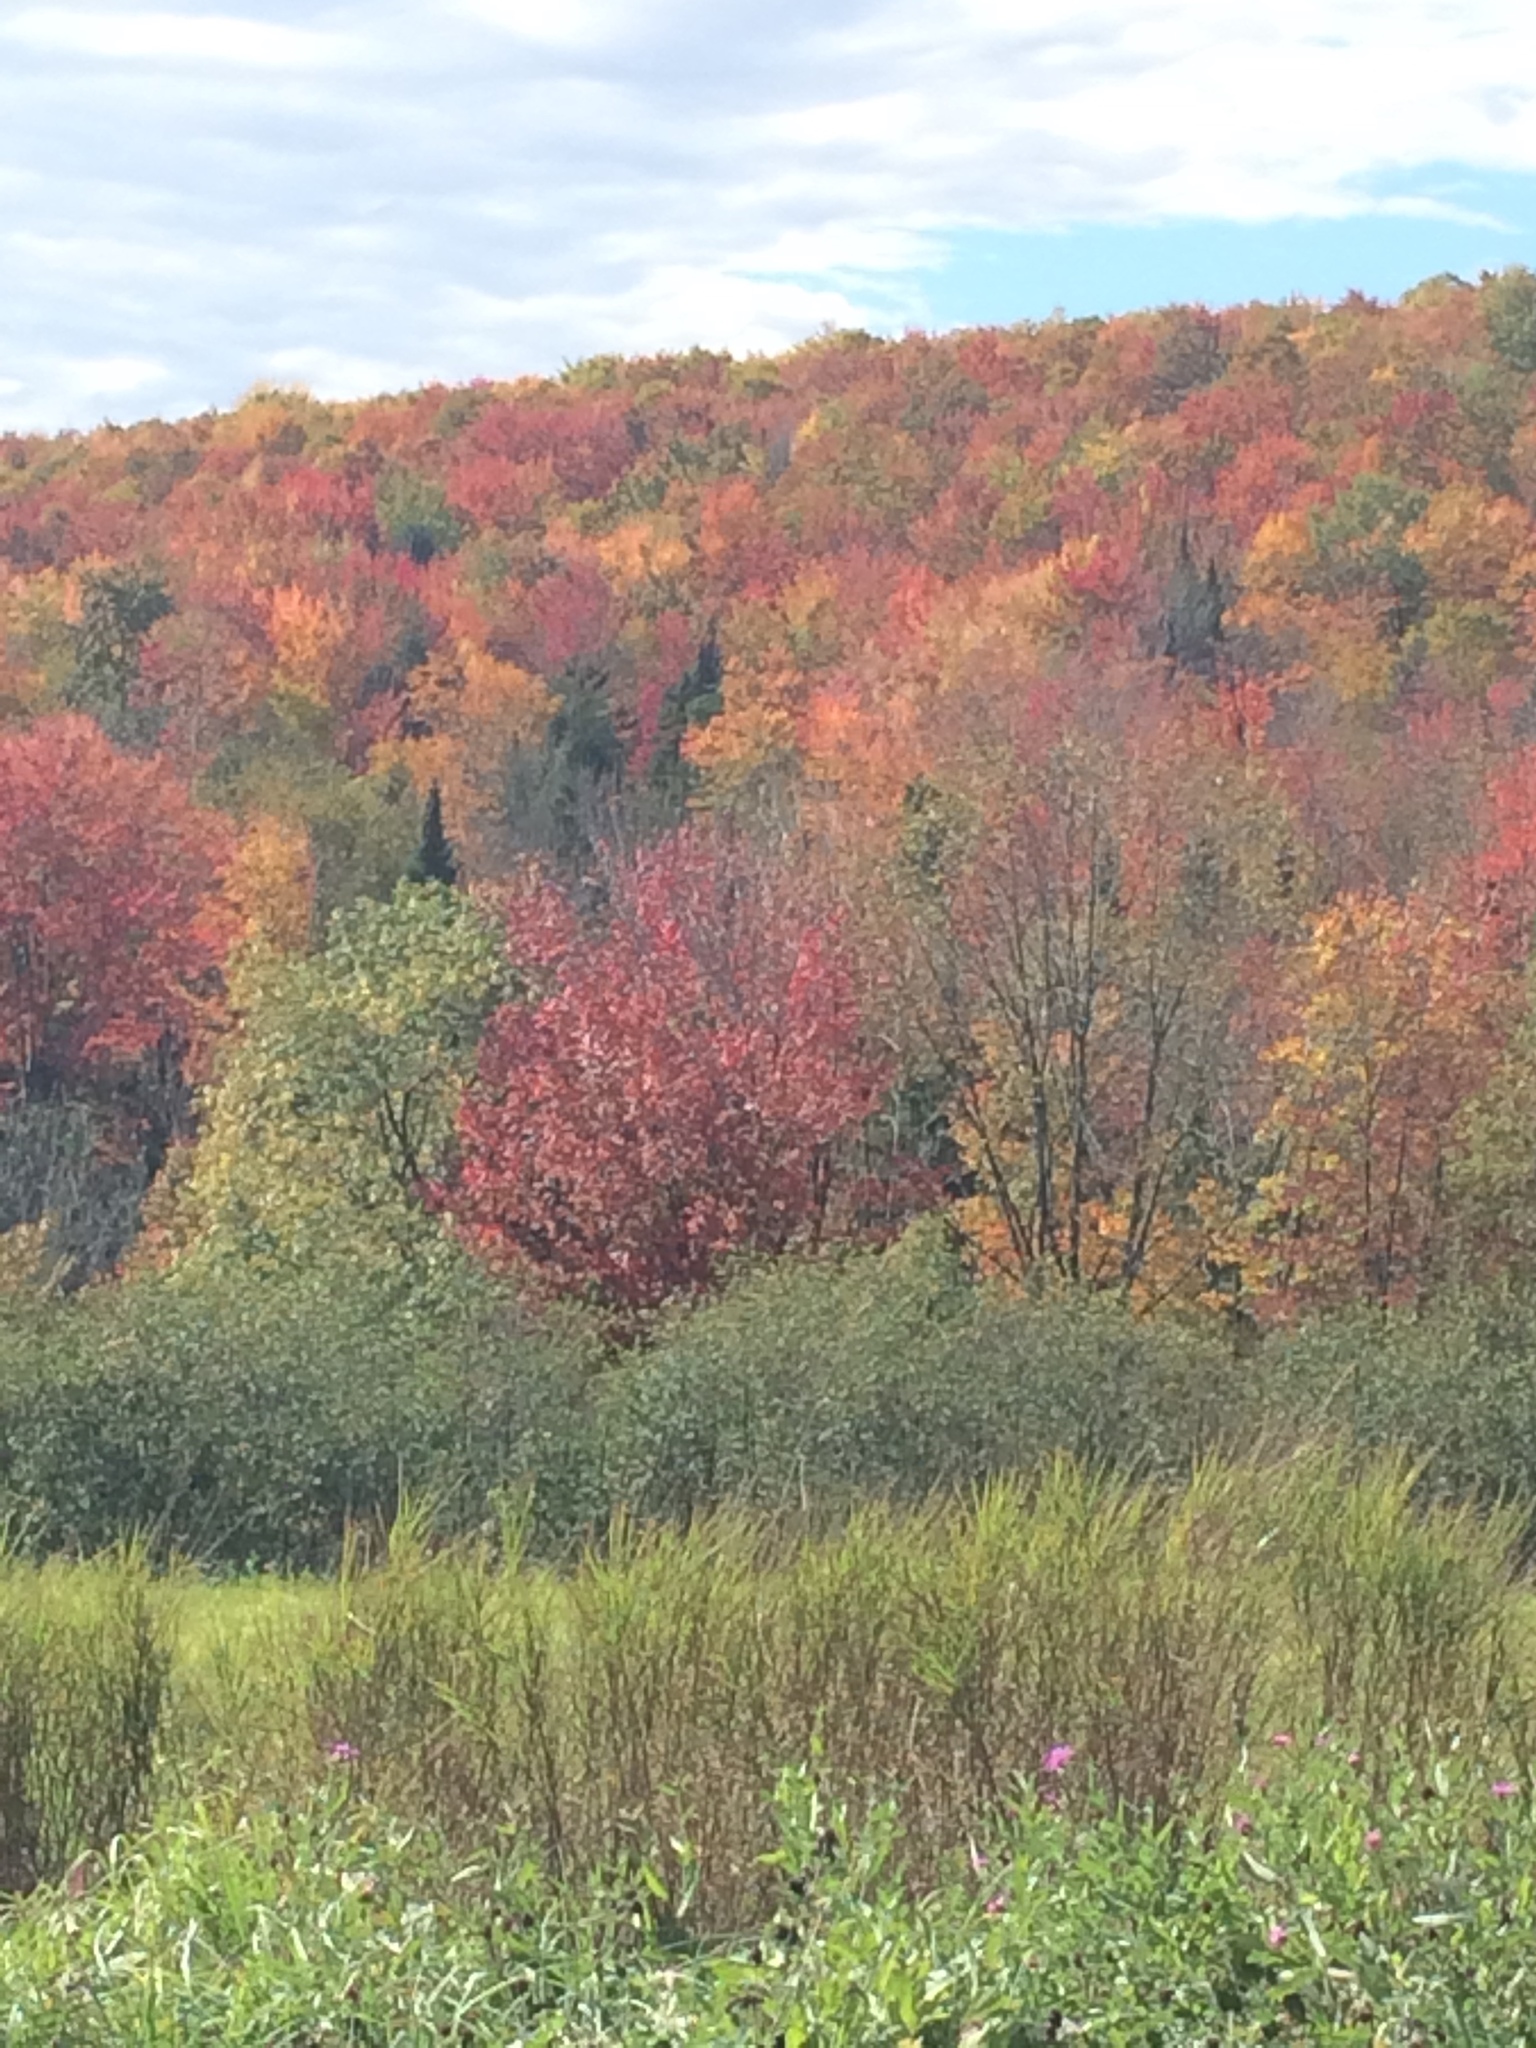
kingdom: Plantae
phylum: Tracheophyta
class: Magnoliopsida
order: Sapindales
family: Sapindaceae
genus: Acer
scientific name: Acer rubrum
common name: Red maple
